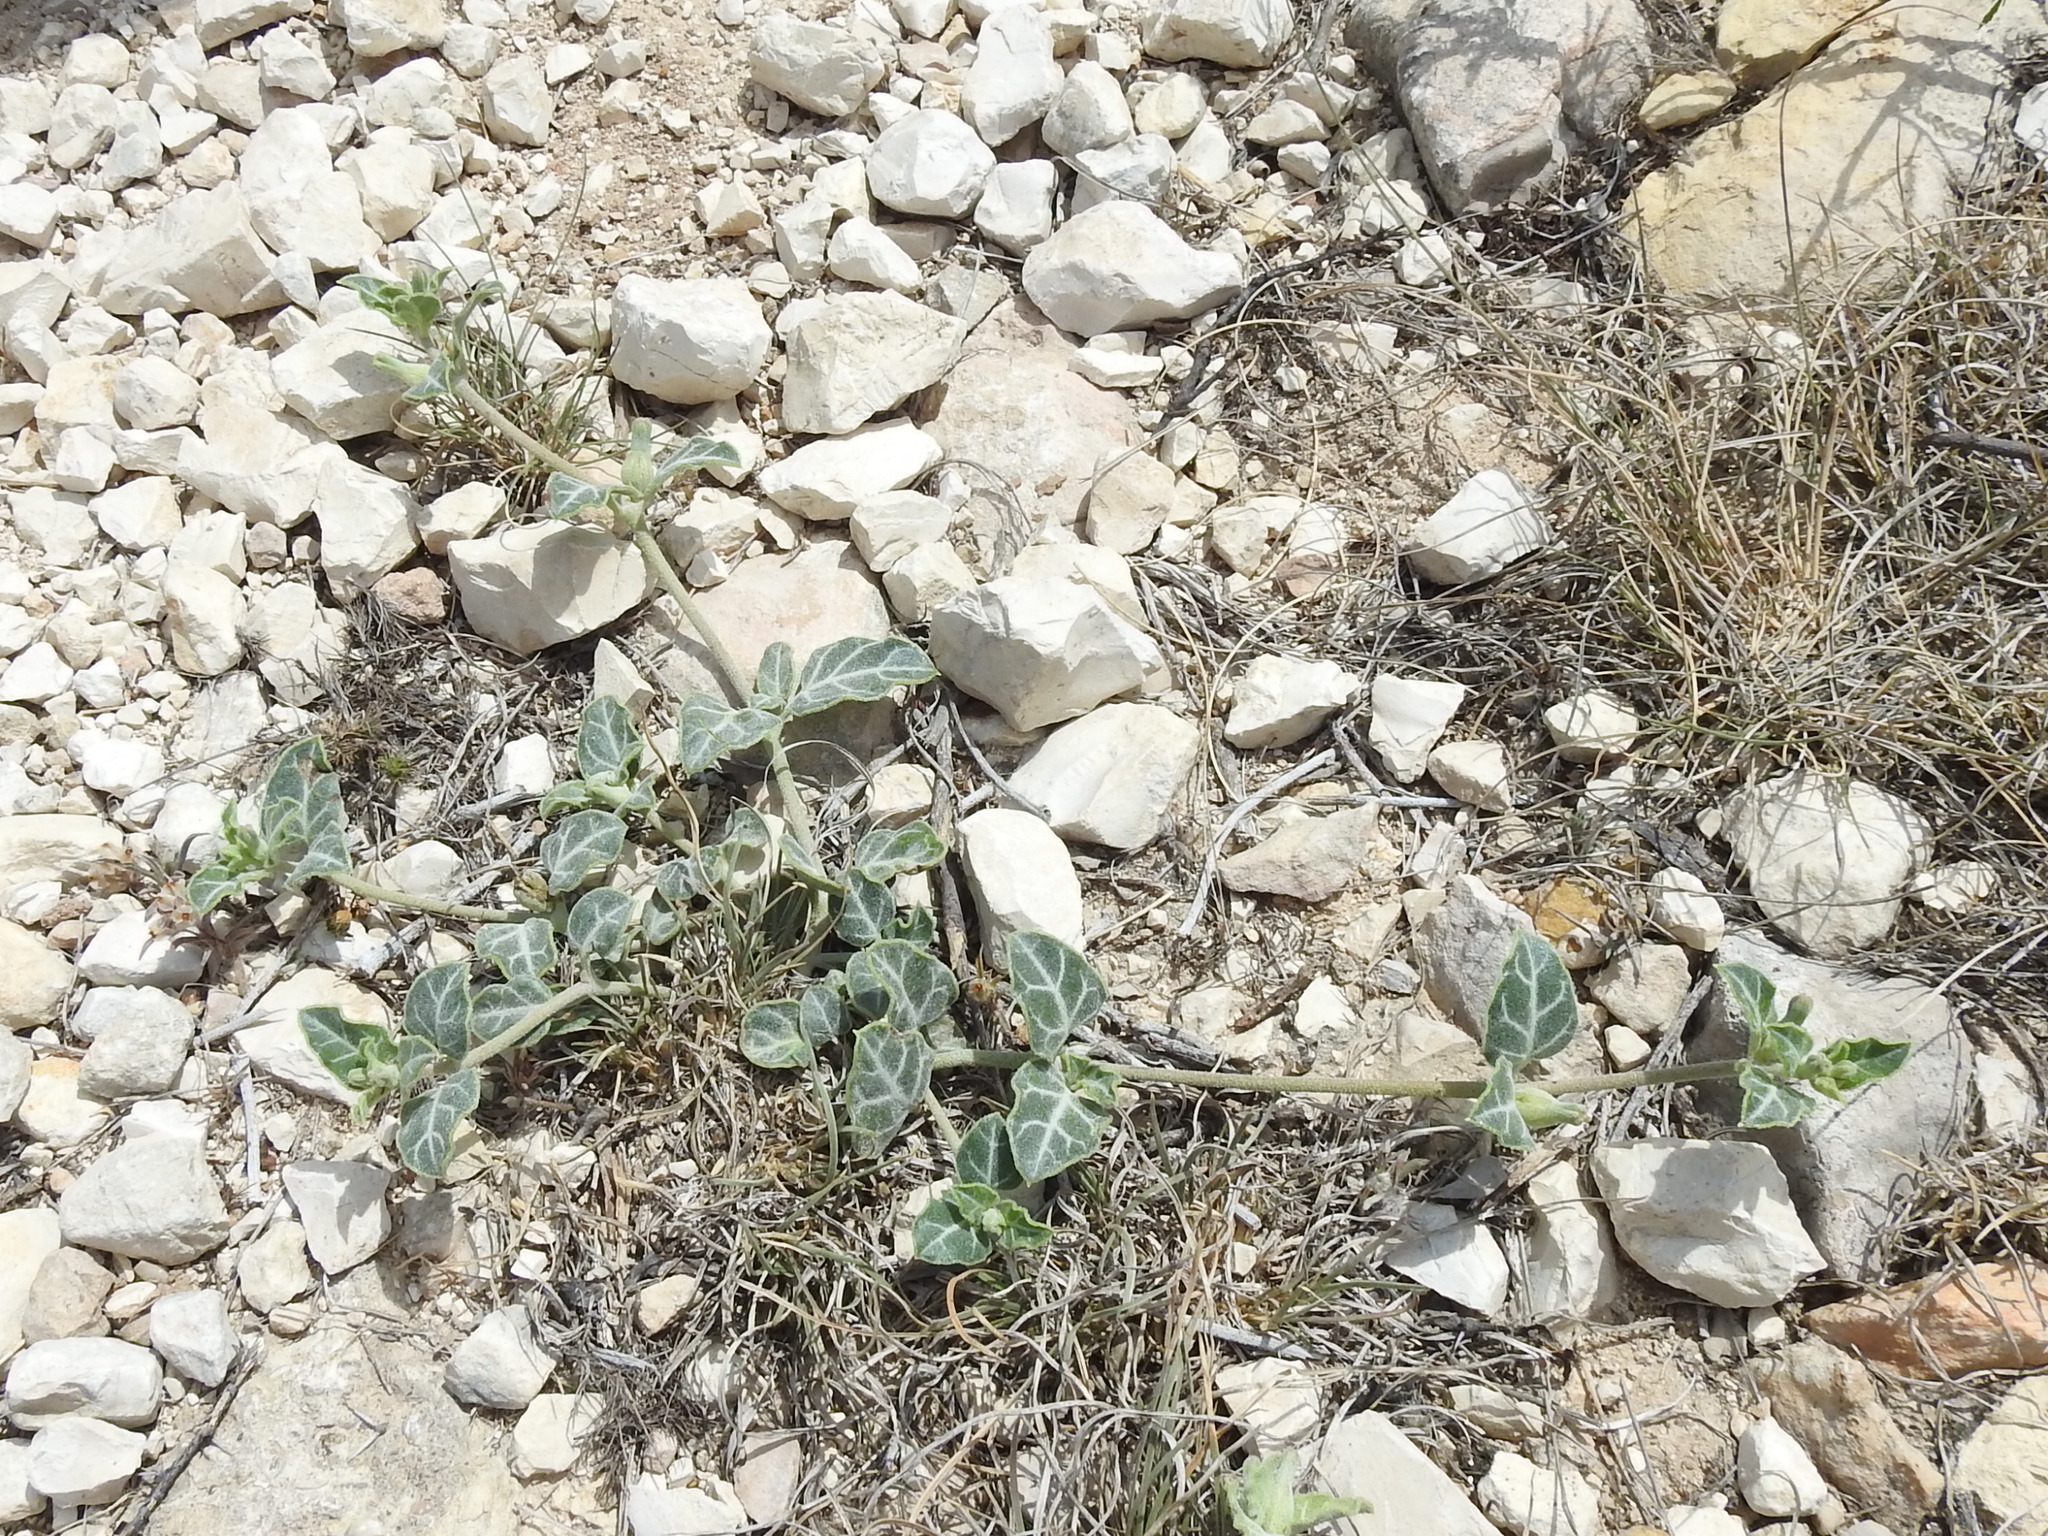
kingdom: Plantae
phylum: Tracheophyta
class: Magnoliopsida
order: Caryophyllales
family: Nyctaginaceae
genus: Acleisanthes
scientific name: Acleisanthes crassifolia
